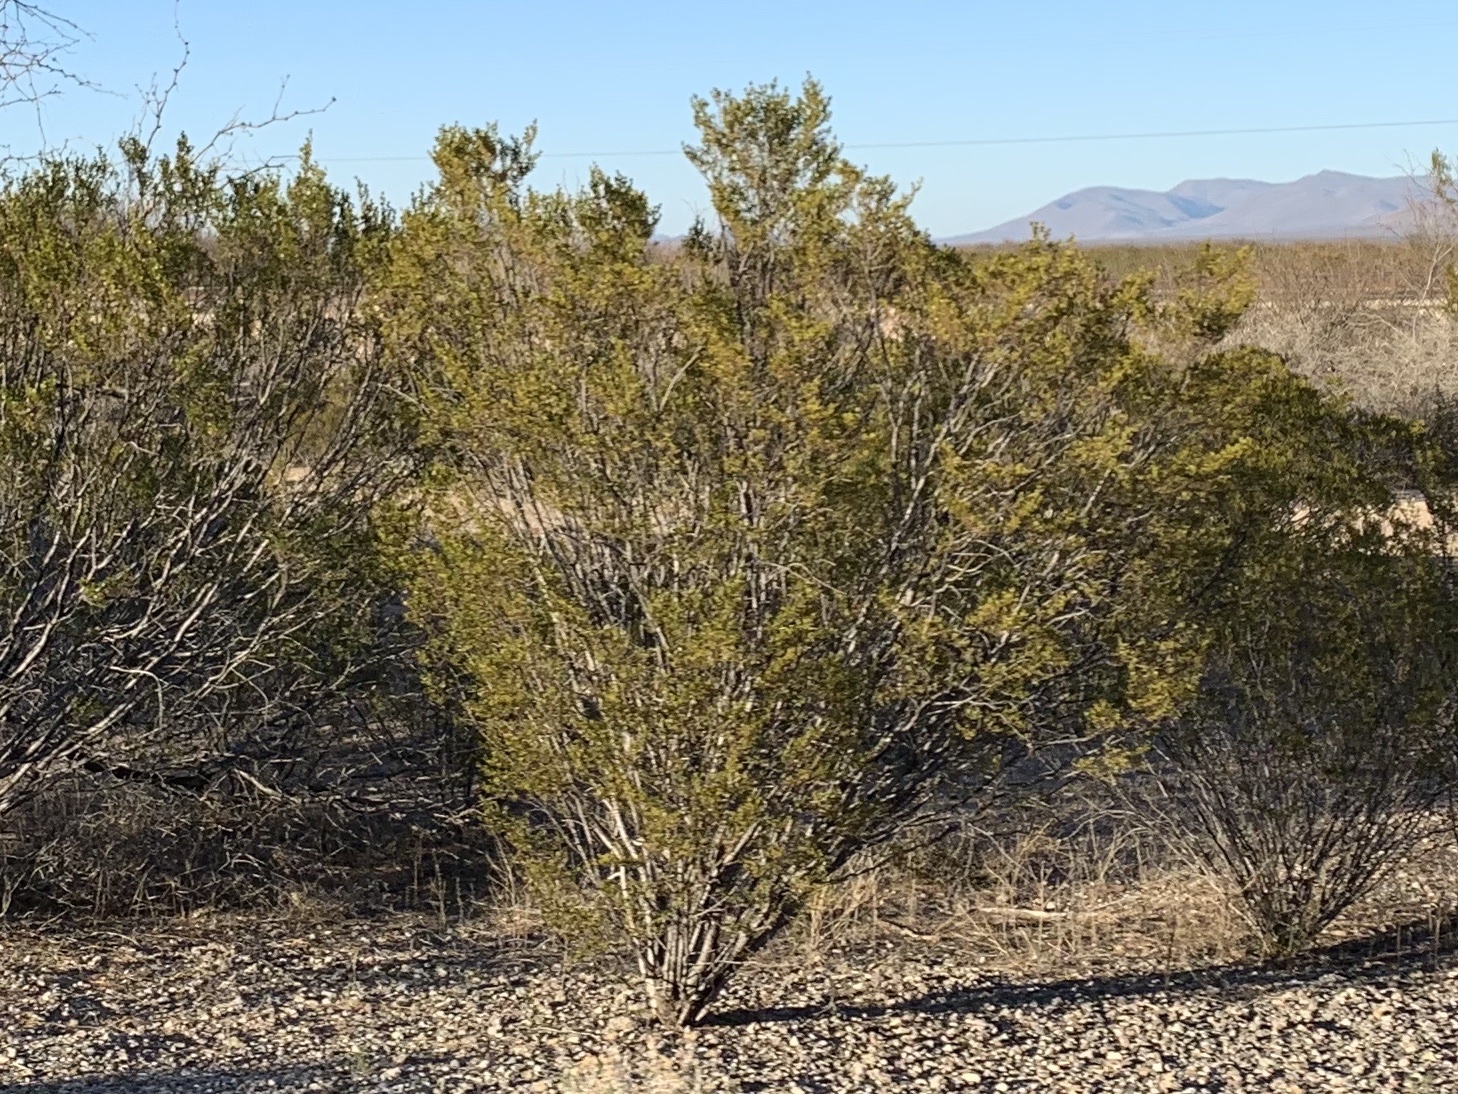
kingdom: Plantae
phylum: Tracheophyta
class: Magnoliopsida
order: Zygophyllales
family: Zygophyllaceae
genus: Larrea
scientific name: Larrea tridentata
